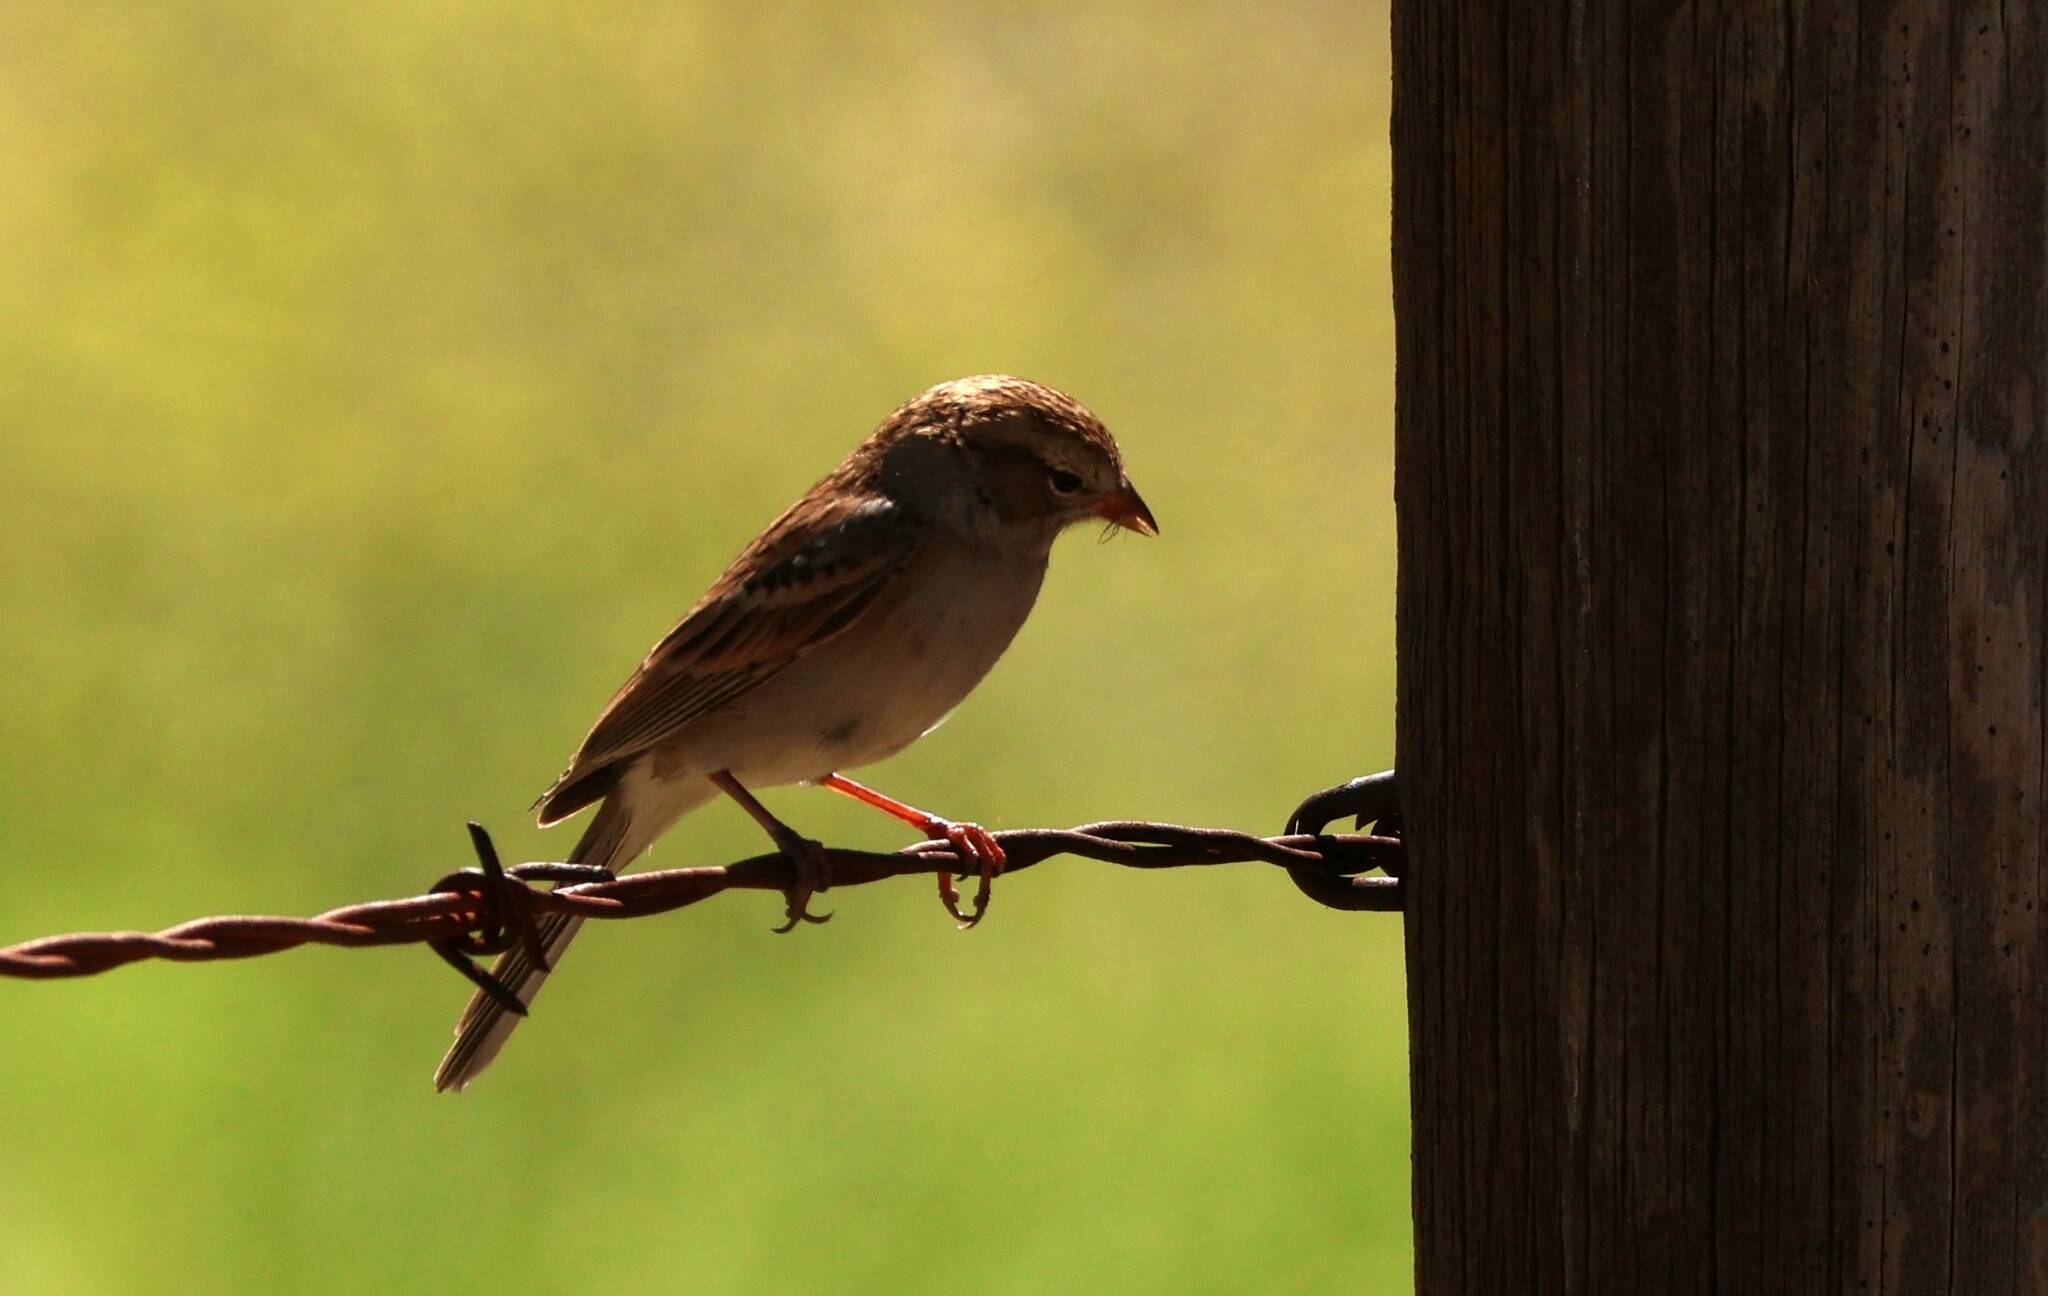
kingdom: Animalia
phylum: Chordata
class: Aves
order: Passeriformes
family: Passerellidae
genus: Spizella
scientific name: Spizella passerina
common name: Chipping sparrow
